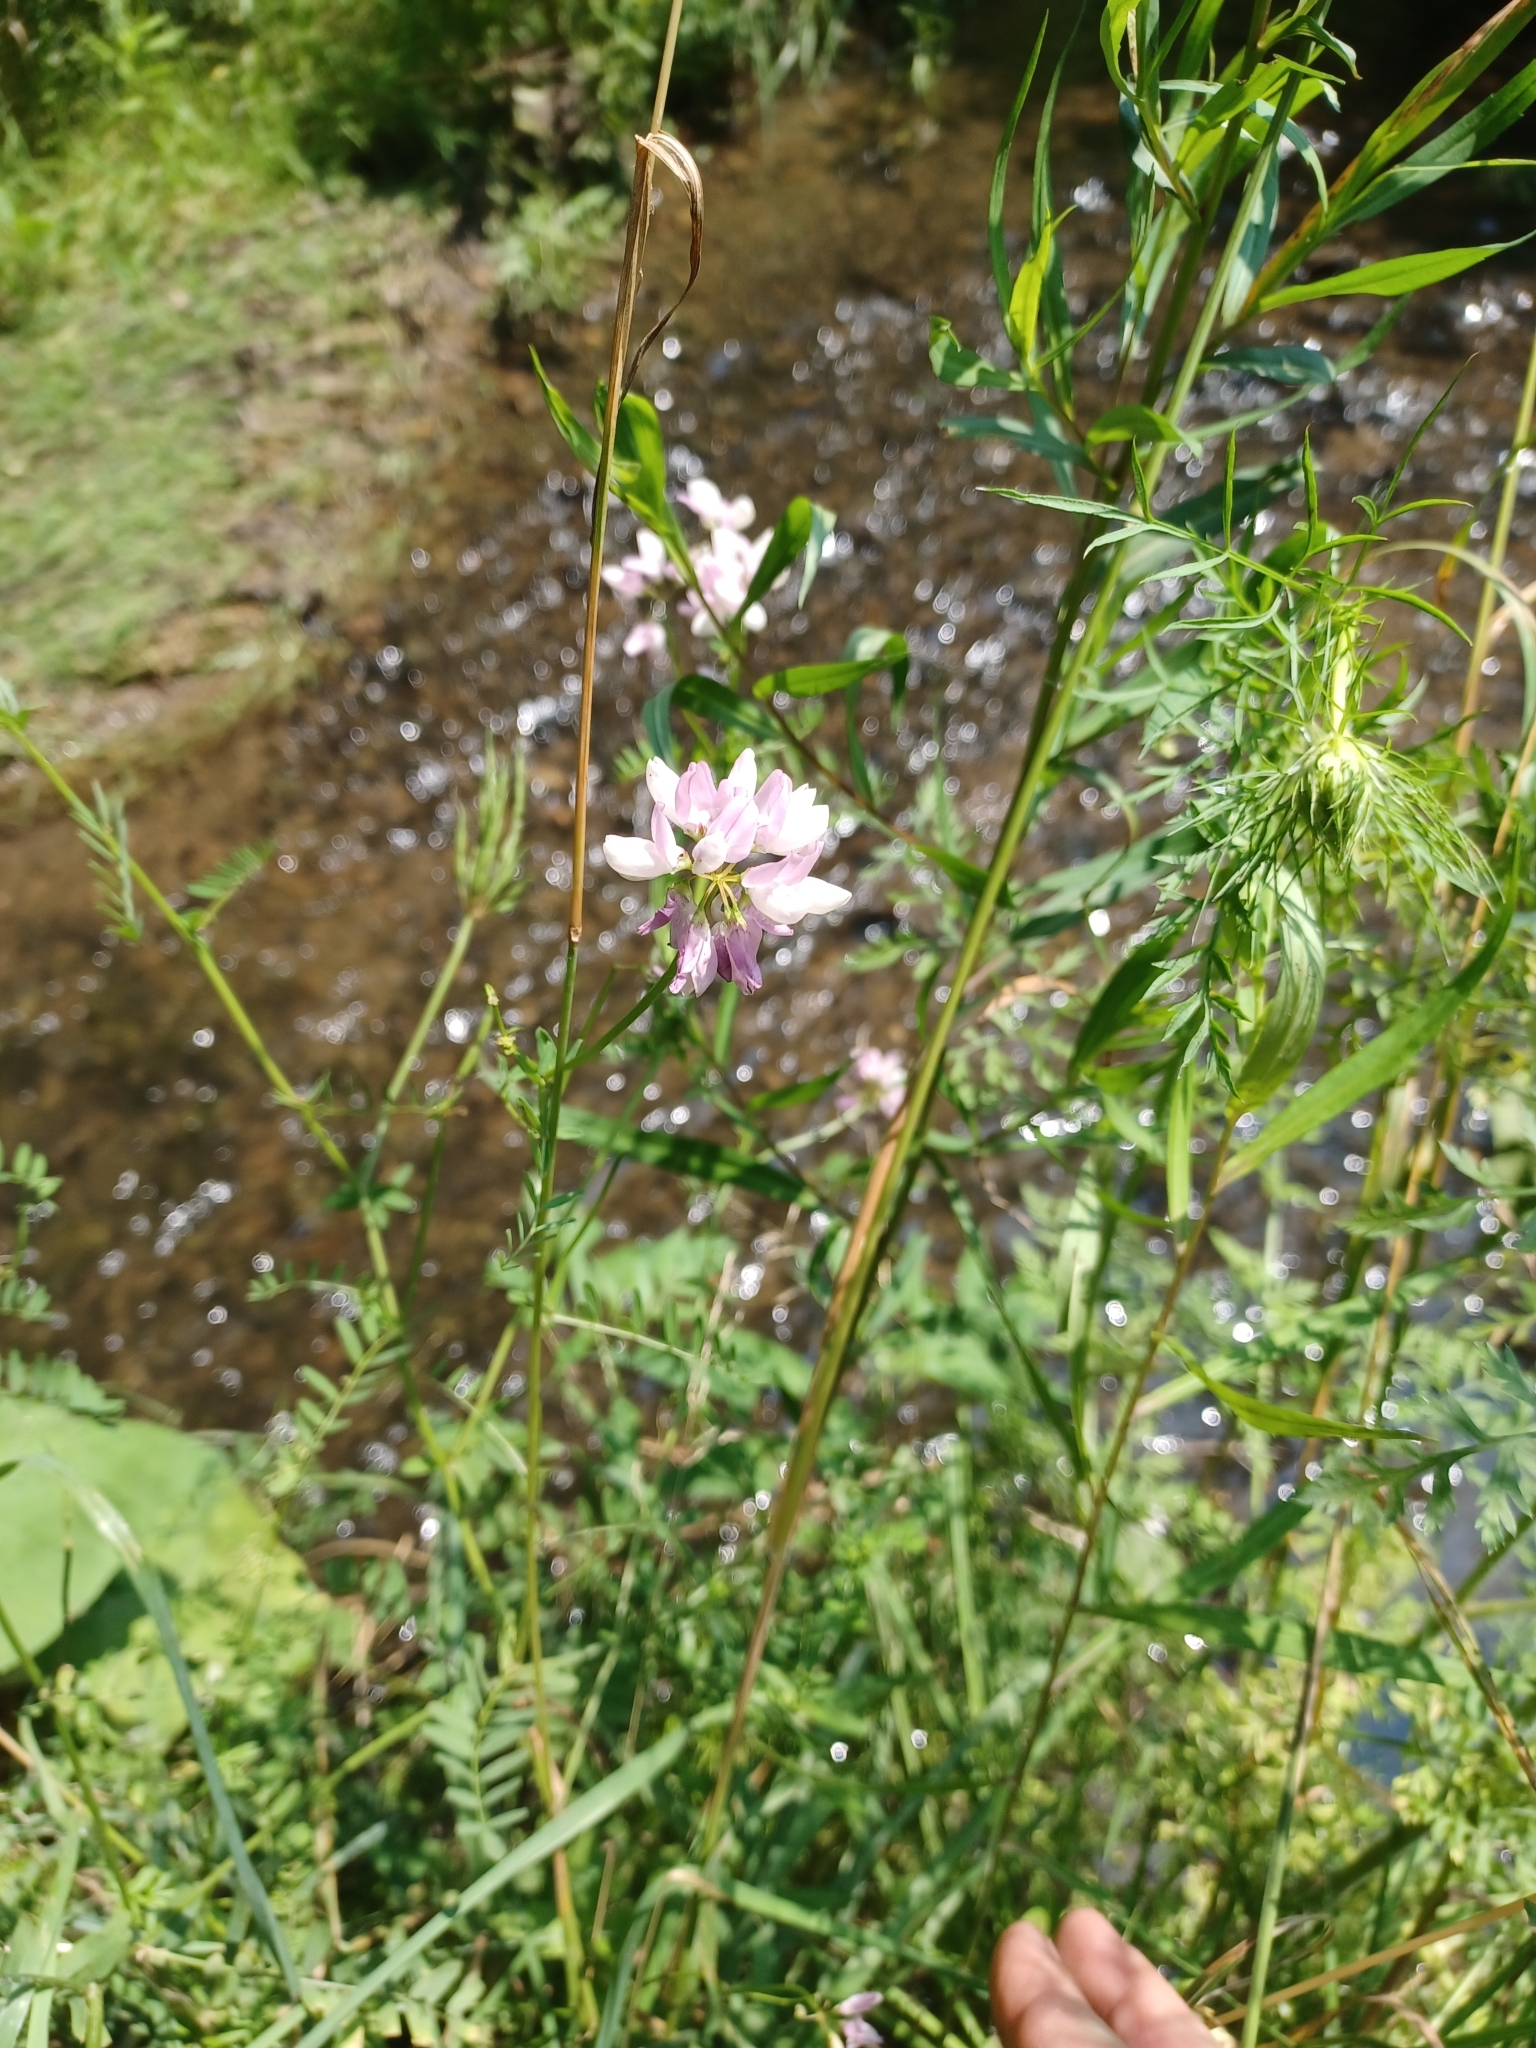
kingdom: Plantae
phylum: Tracheophyta
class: Magnoliopsida
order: Fabales
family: Fabaceae
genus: Coronilla
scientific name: Coronilla varia
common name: Crownvetch
